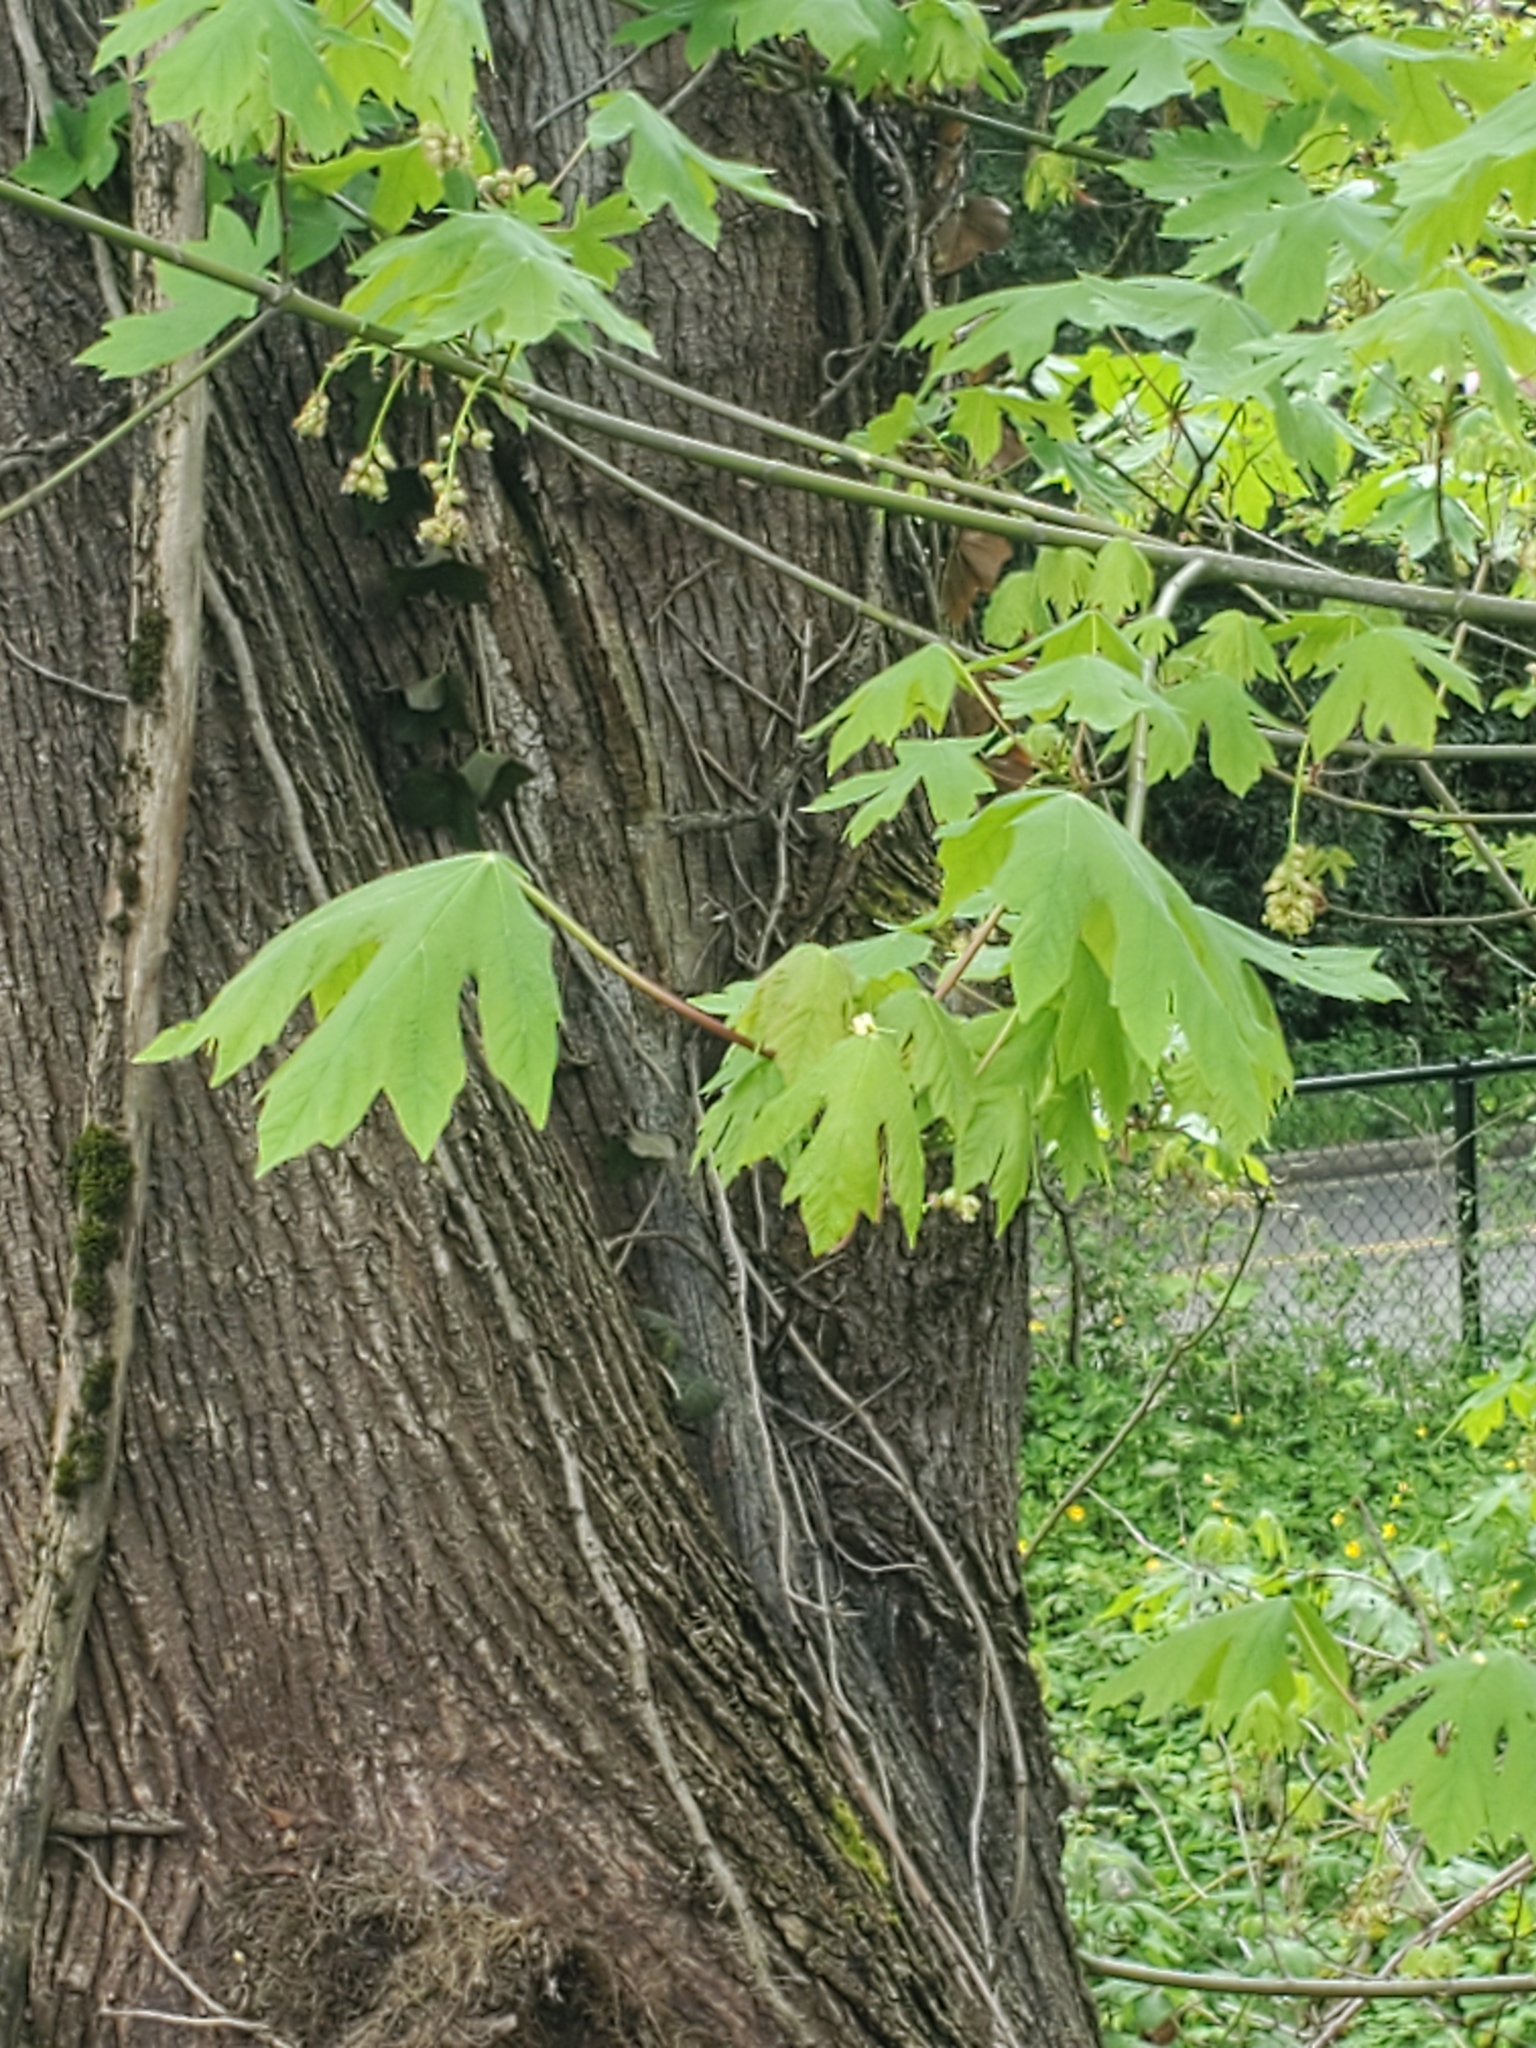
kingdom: Plantae
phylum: Tracheophyta
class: Magnoliopsida
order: Sapindales
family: Sapindaceae
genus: Acer
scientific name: Acer macrophyllum
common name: Oregon maple
